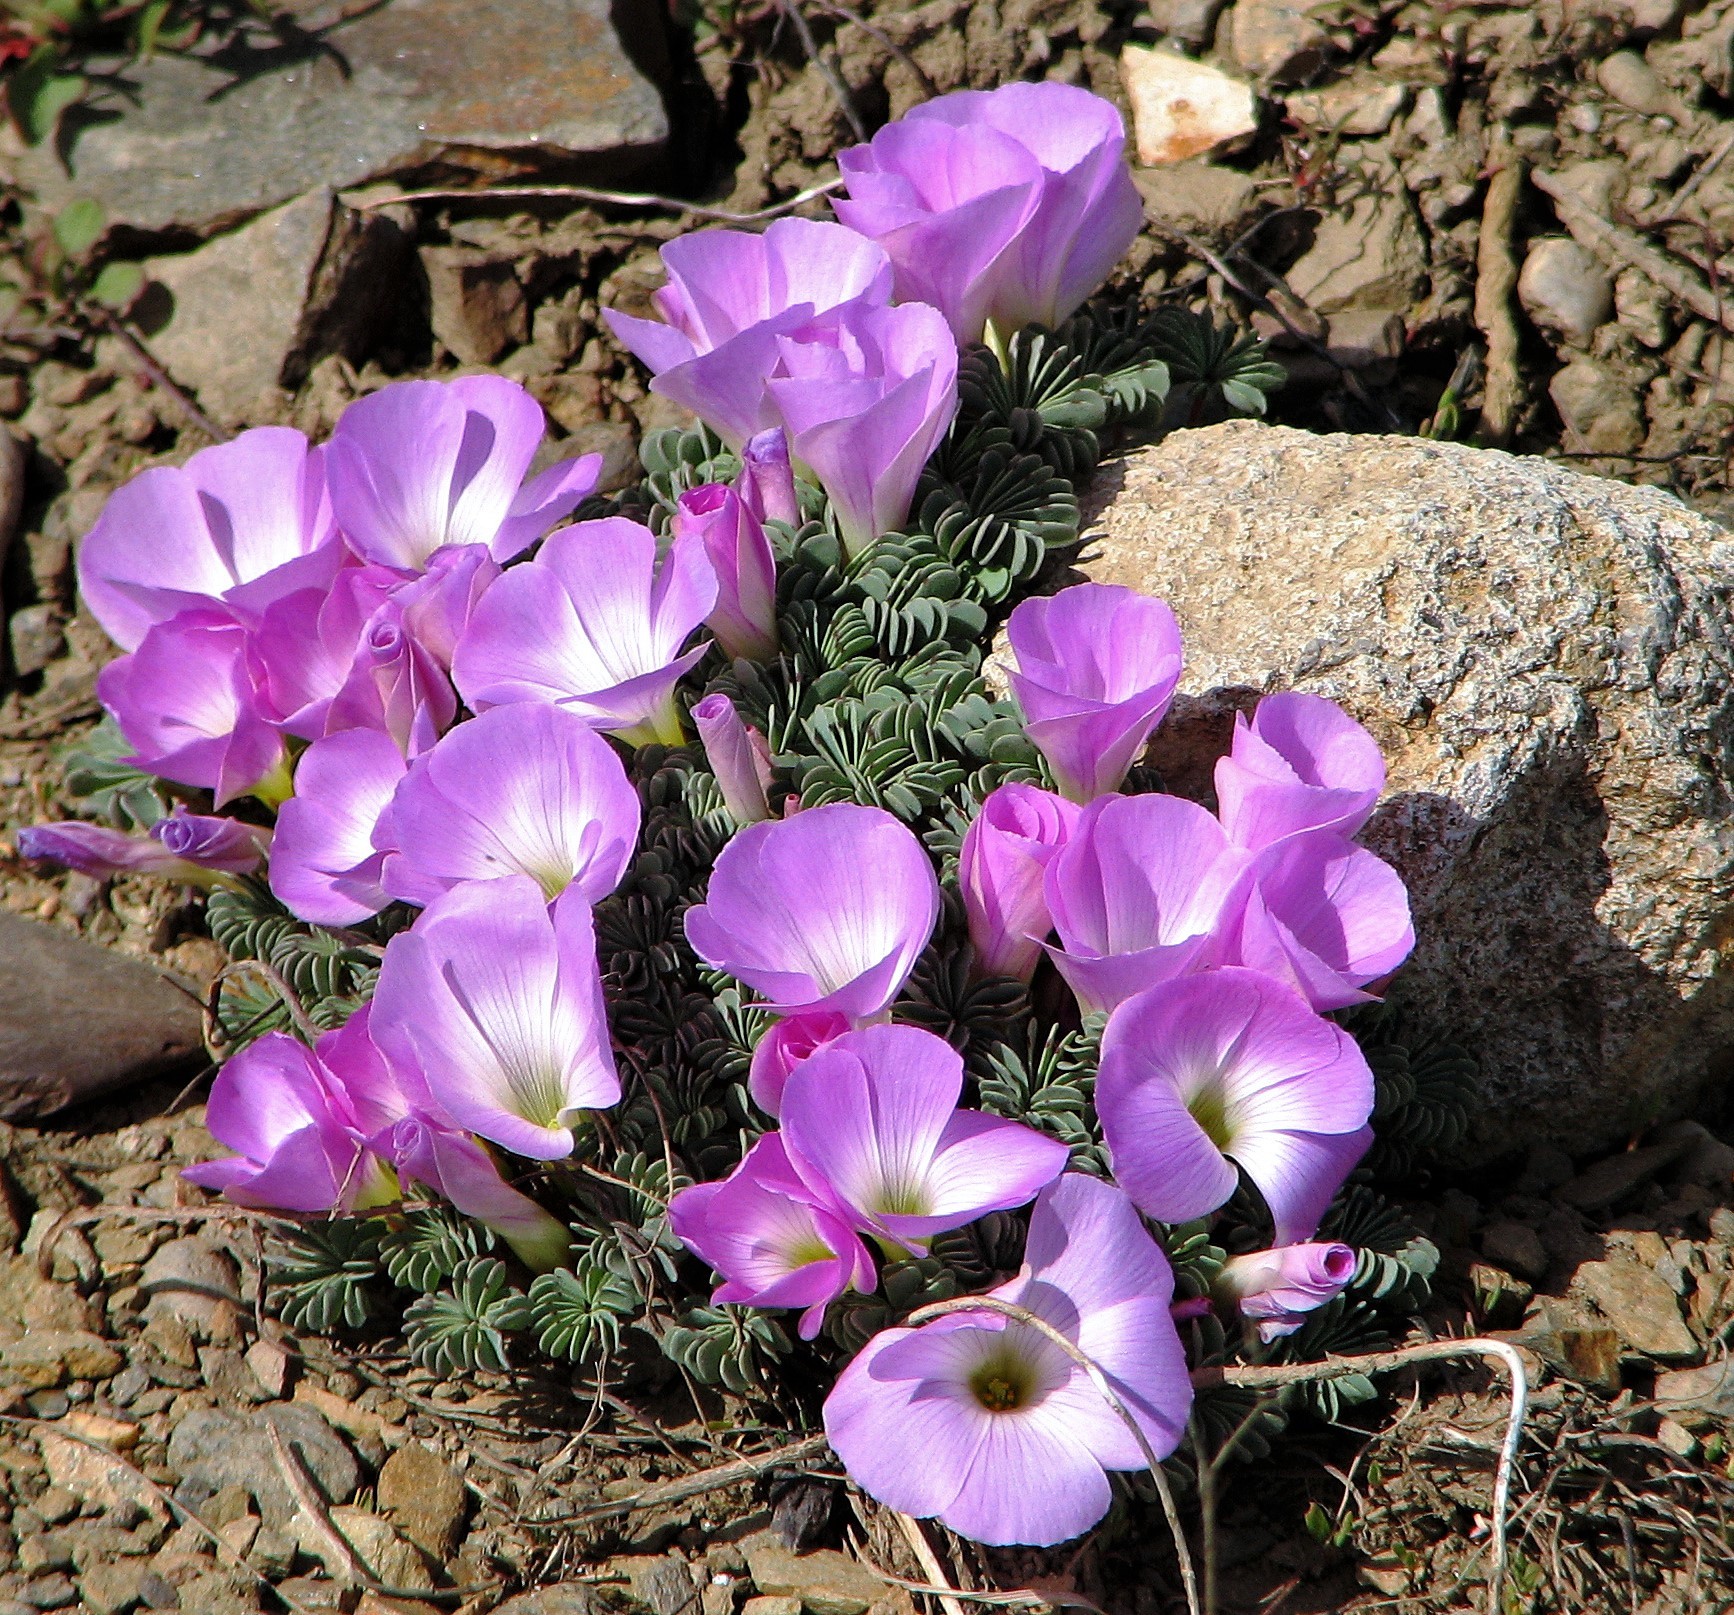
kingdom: Plantae
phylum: Tracheophyta
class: Magnoliopsida
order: Oxalidales
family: Oxalidaceae
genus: Oxalis
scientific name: Oxalis adenophylla
